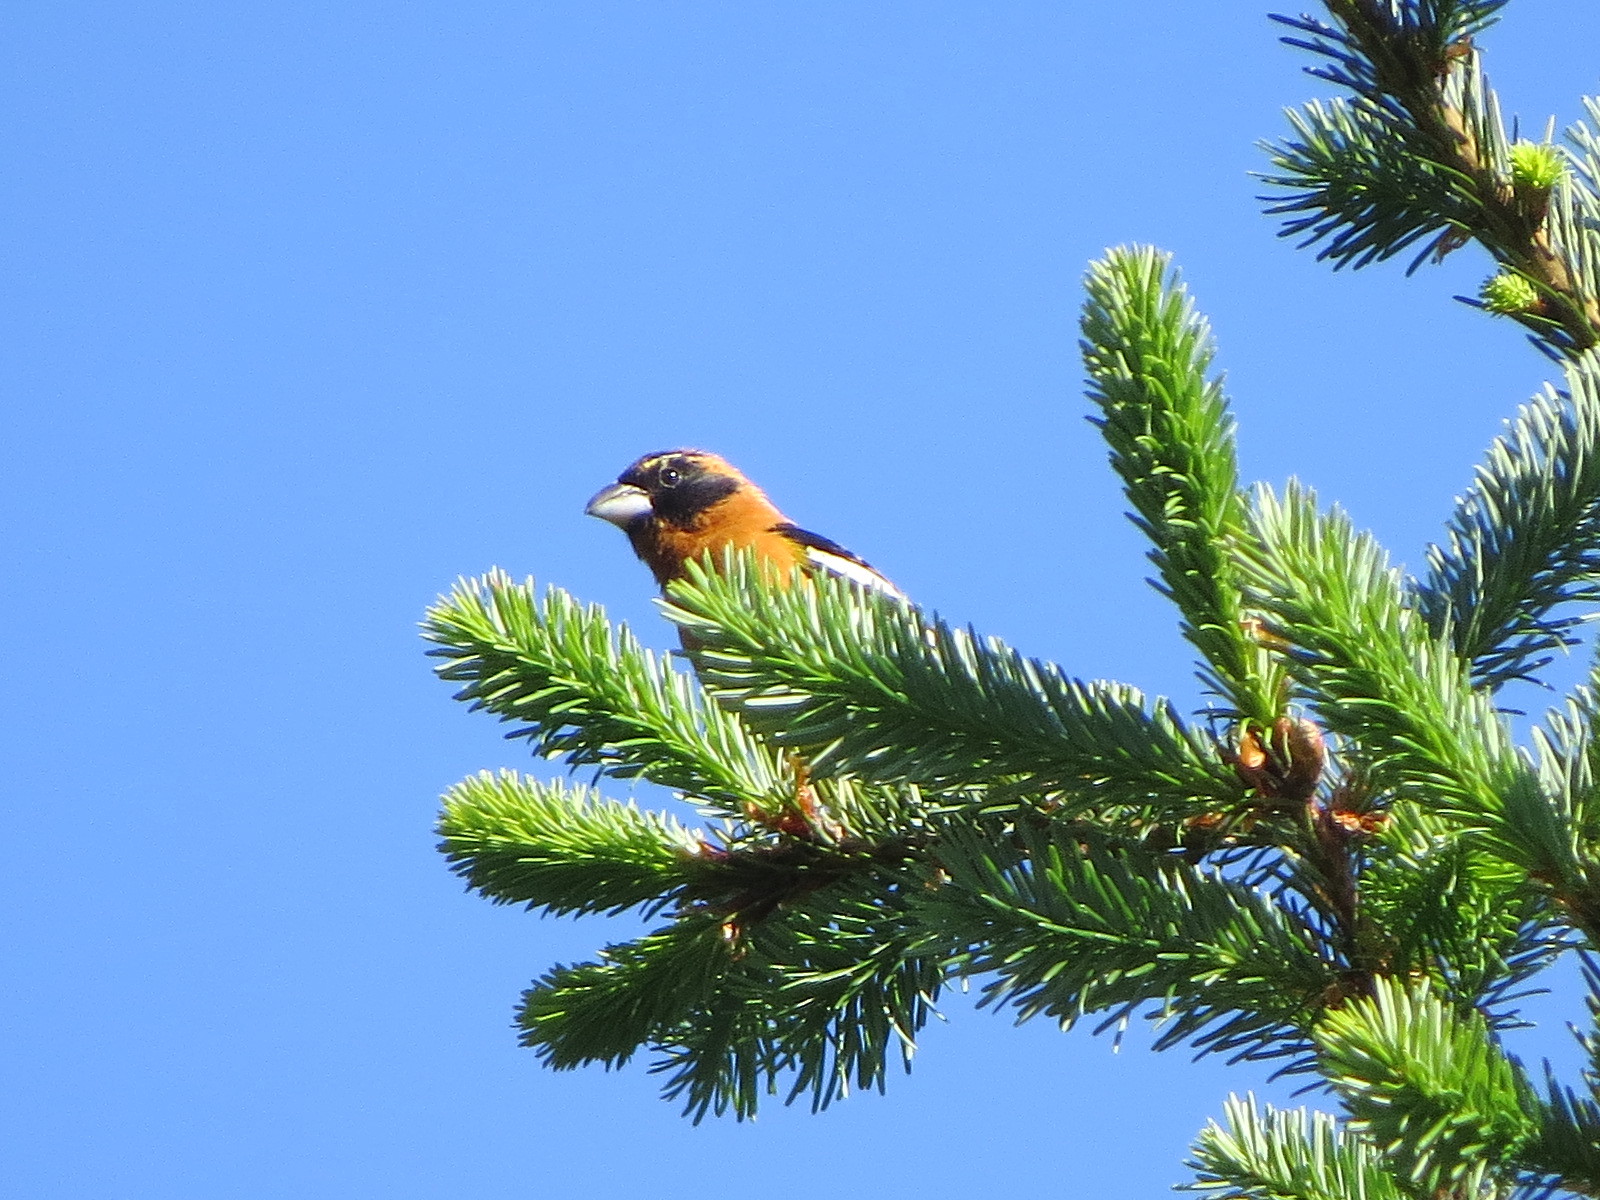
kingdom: Animalia
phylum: Chordata
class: Aves
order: Passeriformes
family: Cardinalidae
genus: Pheucticus
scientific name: Pheucticus melanocephalus
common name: Black-headed grosbeak
